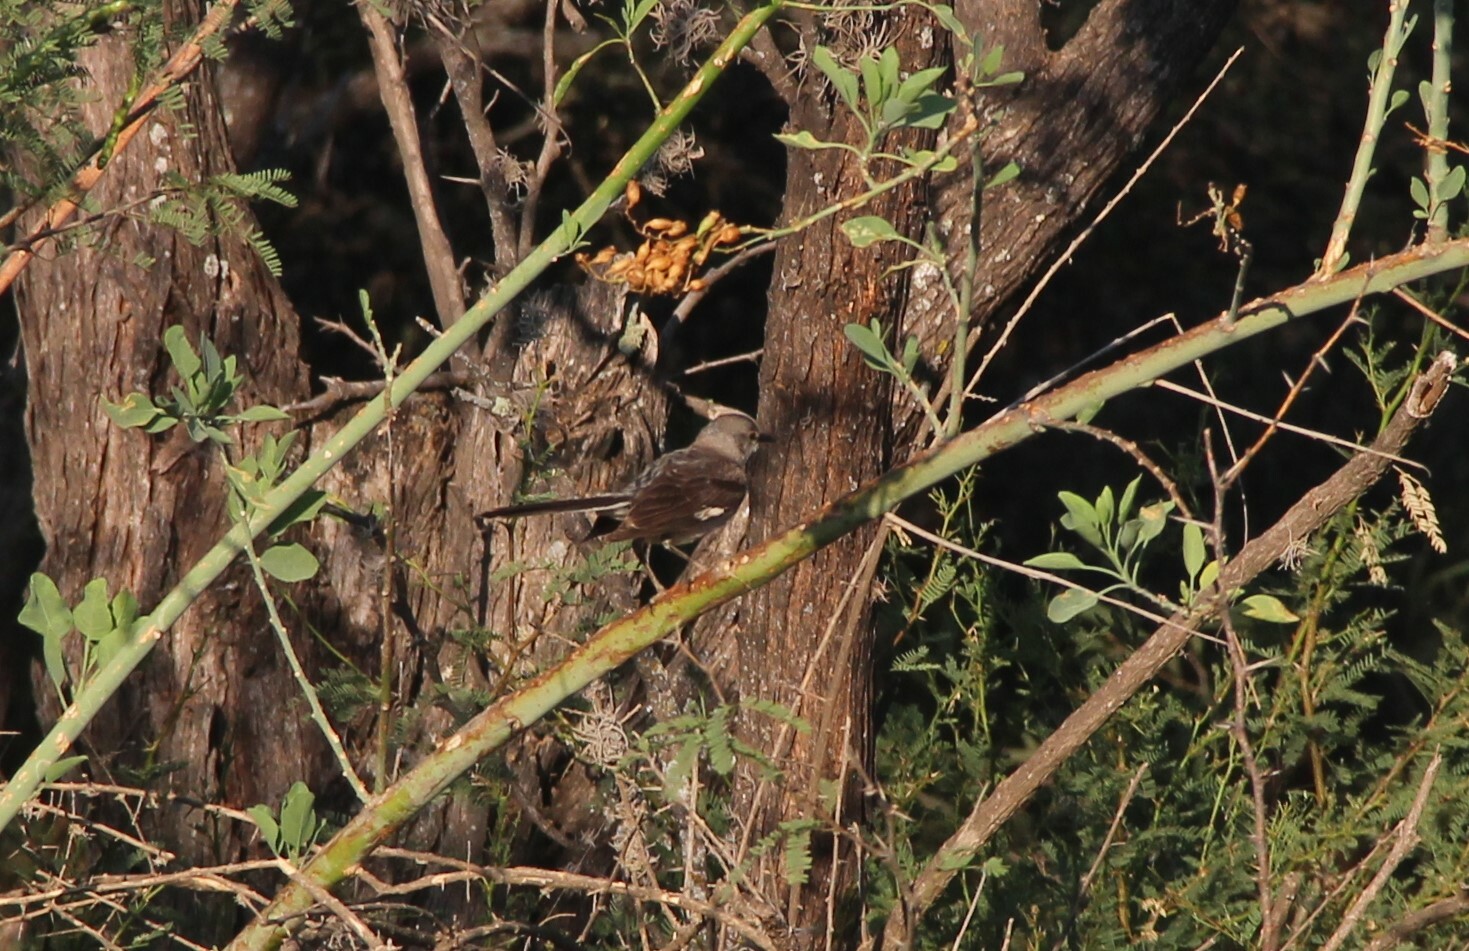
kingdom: Animalia
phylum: Chordata
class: Aves
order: Passeriformes
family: Mimidae
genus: Mimus
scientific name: Mimus polyglottos
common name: Northern mockingbird
